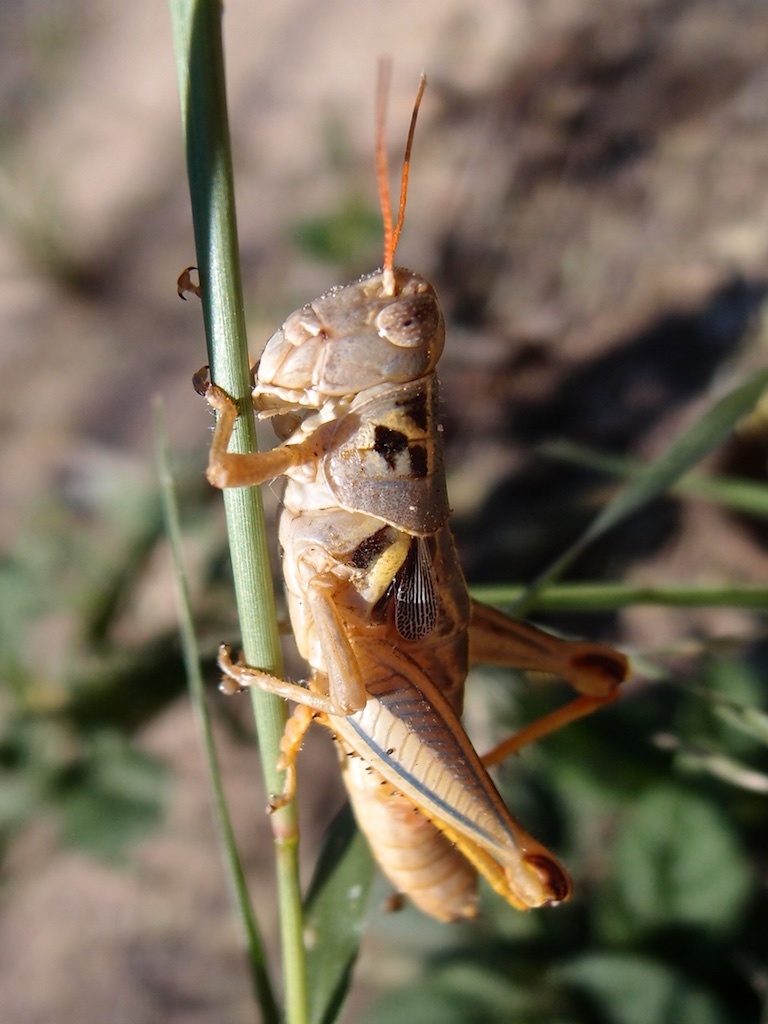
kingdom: Animalia
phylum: Arthropoda
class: Insecta
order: Orthoptera
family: Acrididae
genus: Barytettix
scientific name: Barytettix humphreysii
